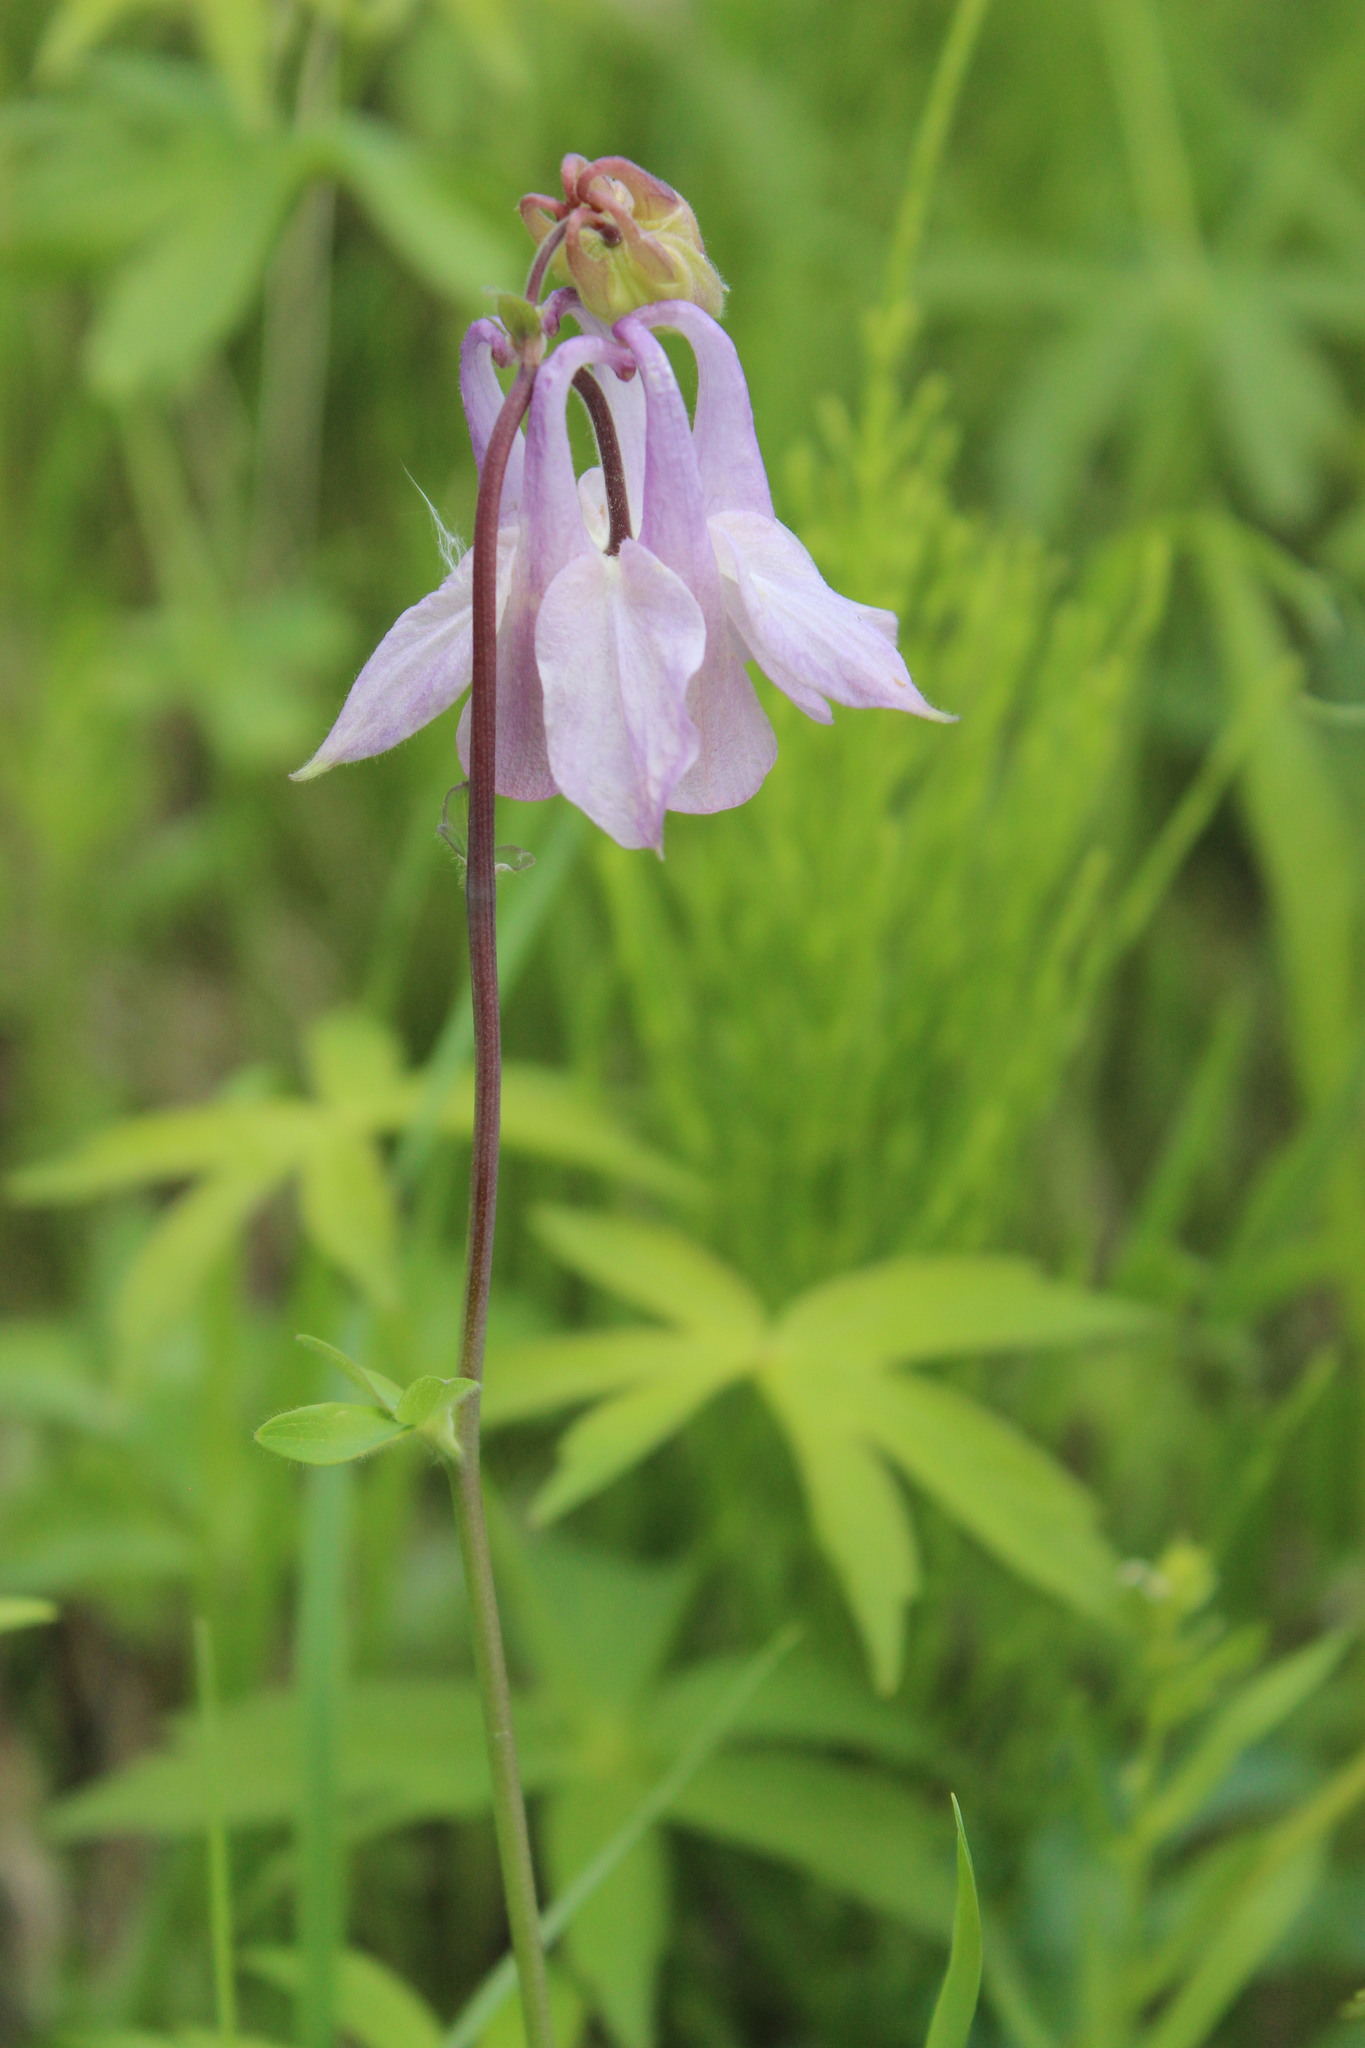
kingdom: Plantae
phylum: Tracheophyta
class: Magnoliopsida
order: Ranunculales
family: Ranunculaceae
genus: Aquilegia
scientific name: Aquilegia vulgaris
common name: Columbine
